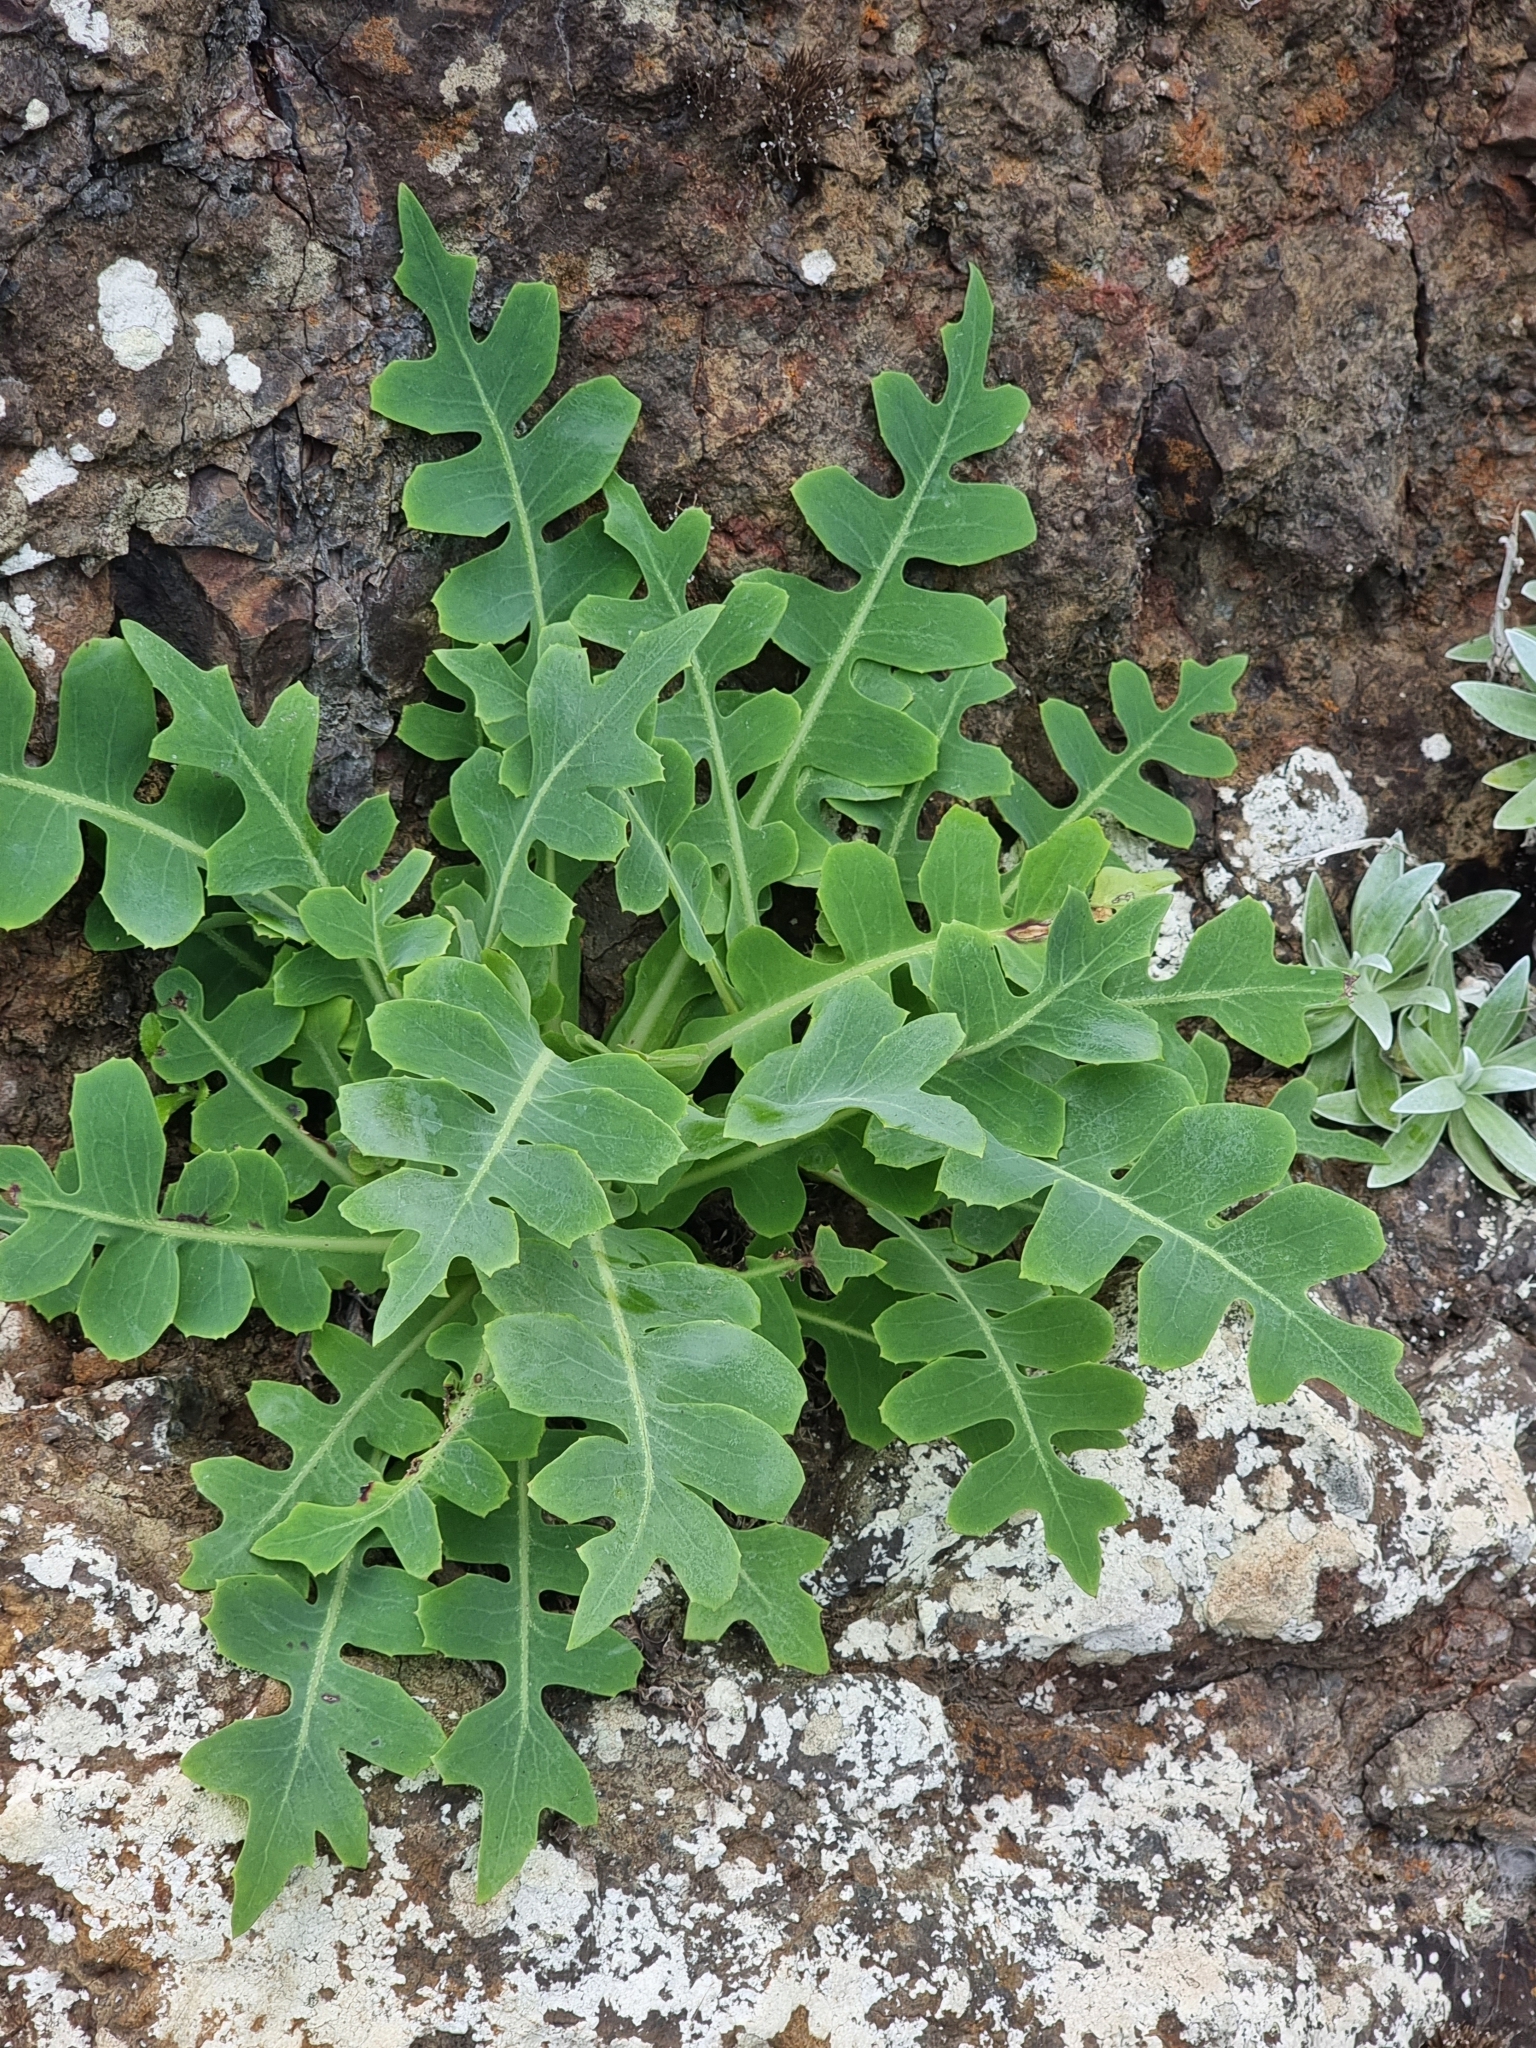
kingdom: Plantae
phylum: Tracheophyta
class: Magnoliopsida
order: Asterales
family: Asteraceae
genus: Sonchus
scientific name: Sonchus latifolius
